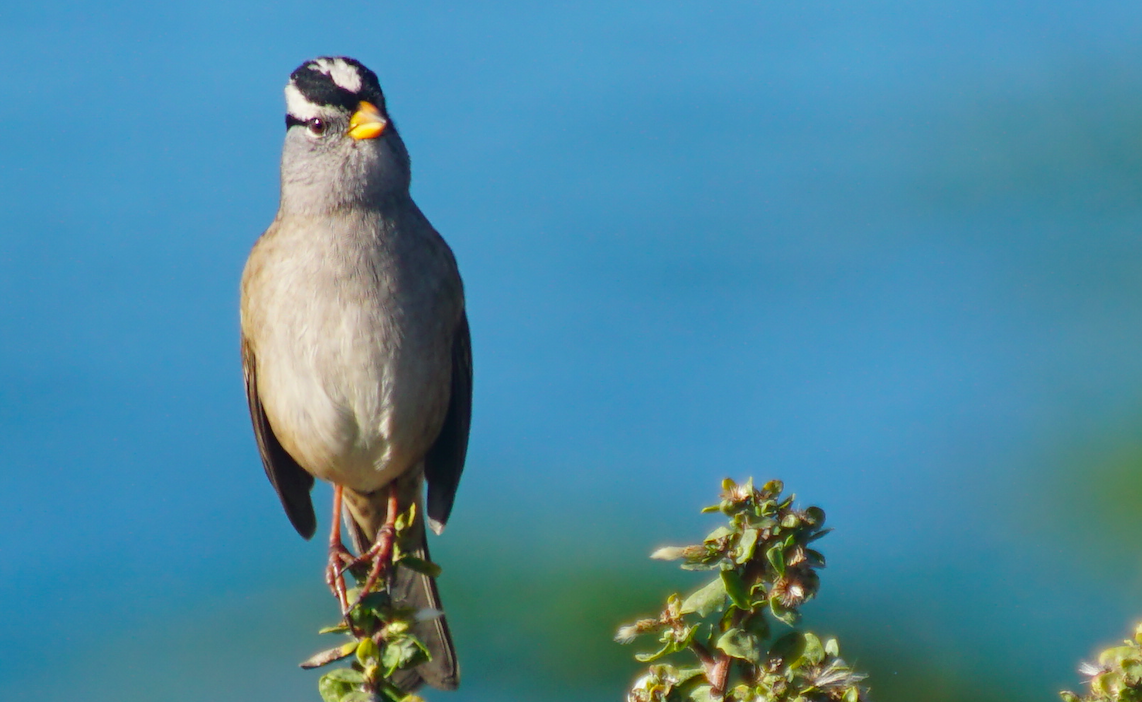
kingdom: Animalia
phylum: Chordata
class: Aves
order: Passeriformes
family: Passerellidae
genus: Zonotrichia
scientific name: Zonotrichia leucophrys
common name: White-crowned sparrow
